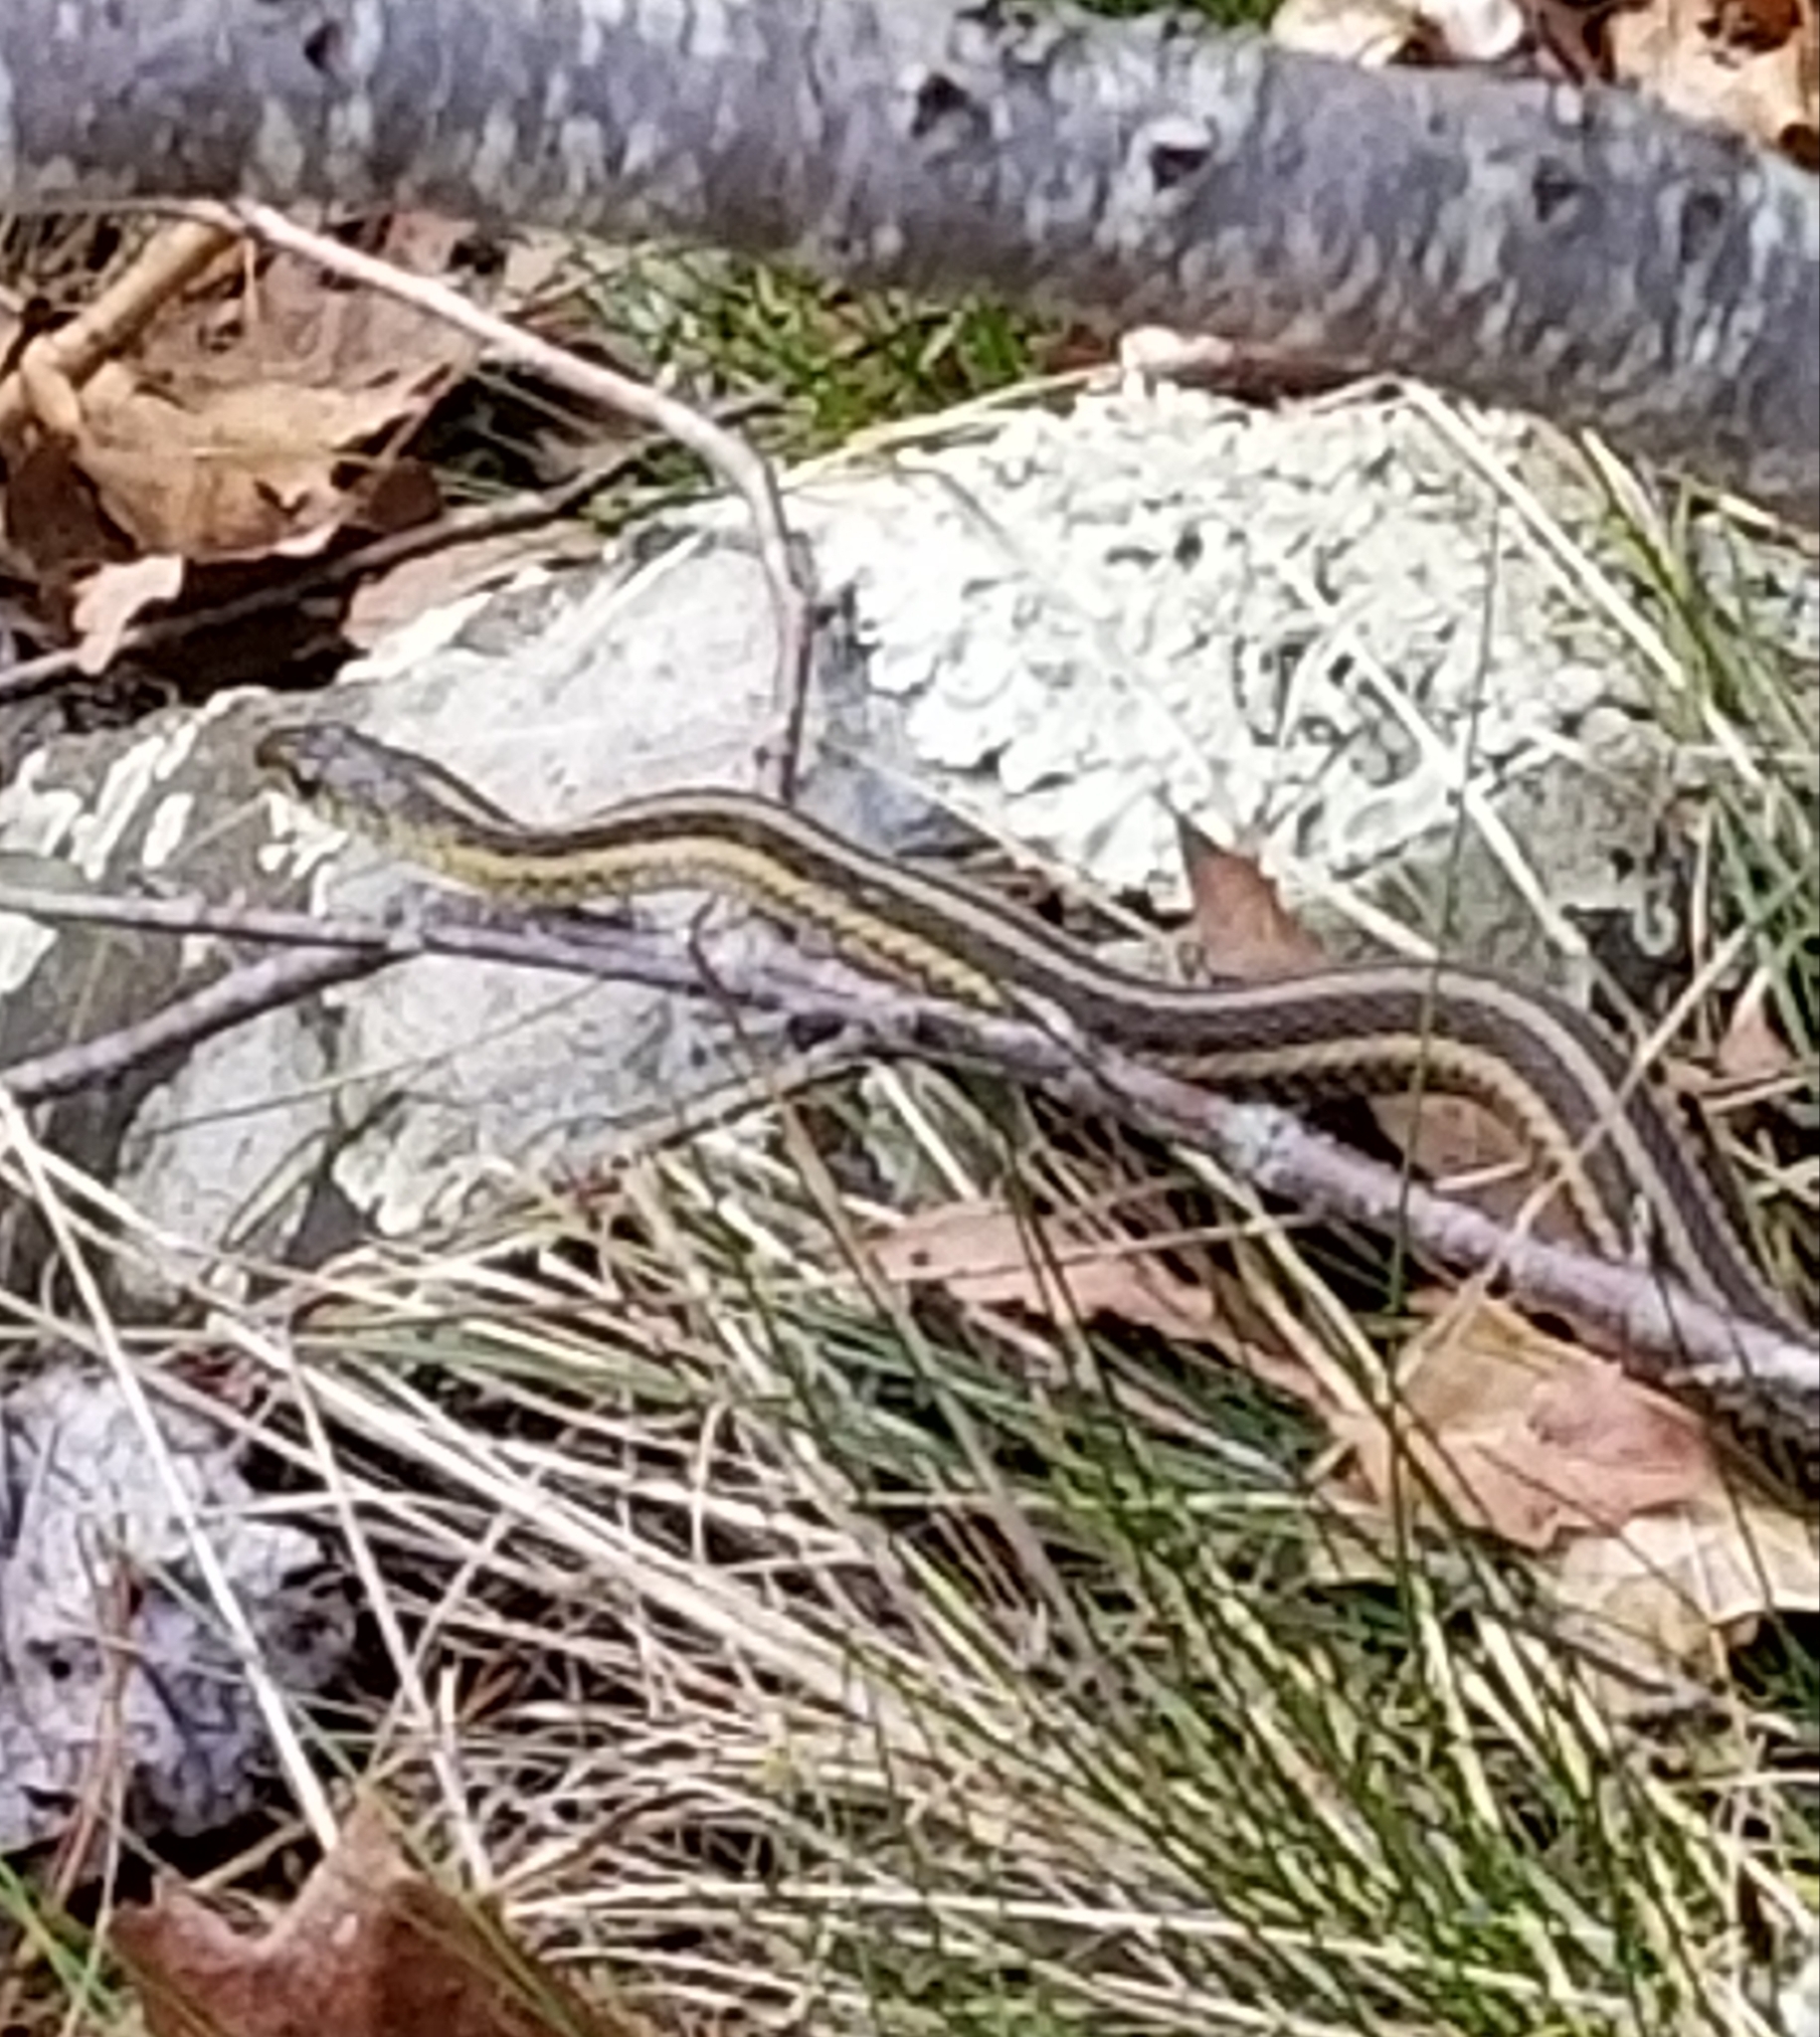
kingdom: Animalia
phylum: Chordata
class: Squamata
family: Colubridae
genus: Thamnophis
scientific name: Thamnophis sirtalis
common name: Common garter snake
